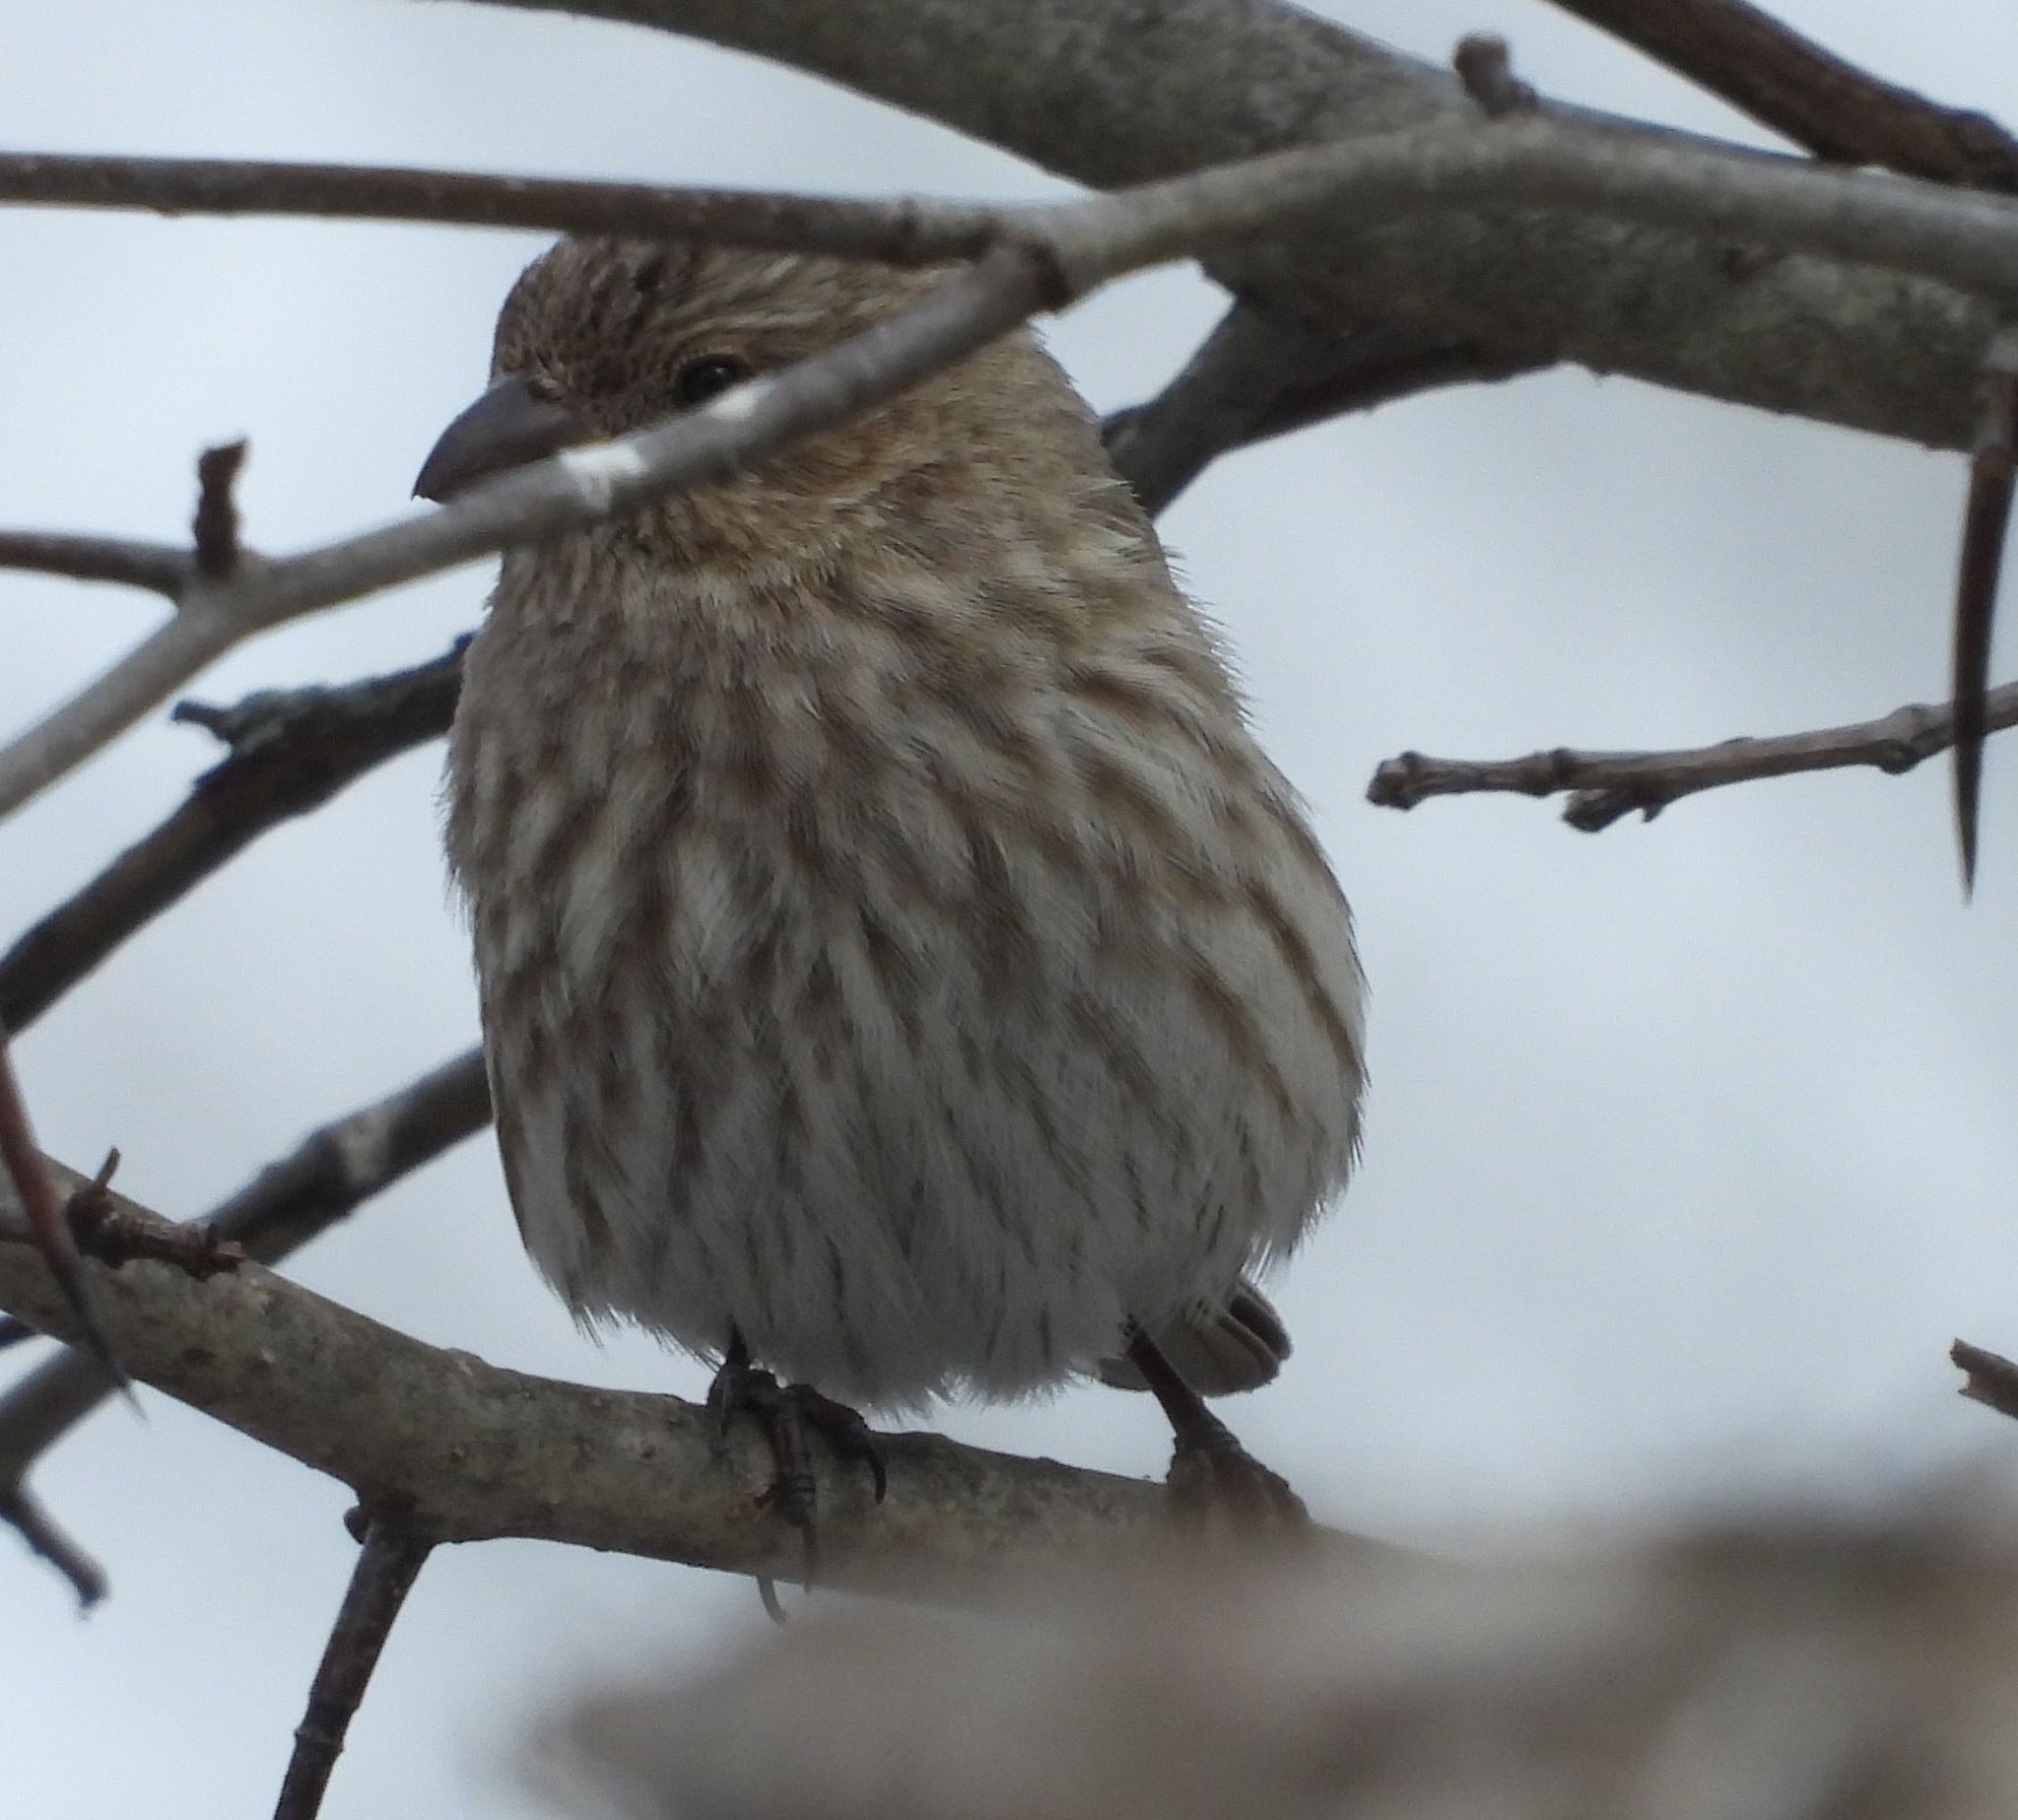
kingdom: Animalia
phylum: Chordata
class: Aves
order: Passeriformes
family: Fringillidae
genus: Haemorhous
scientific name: Haemorhous mexicanus
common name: House finch
